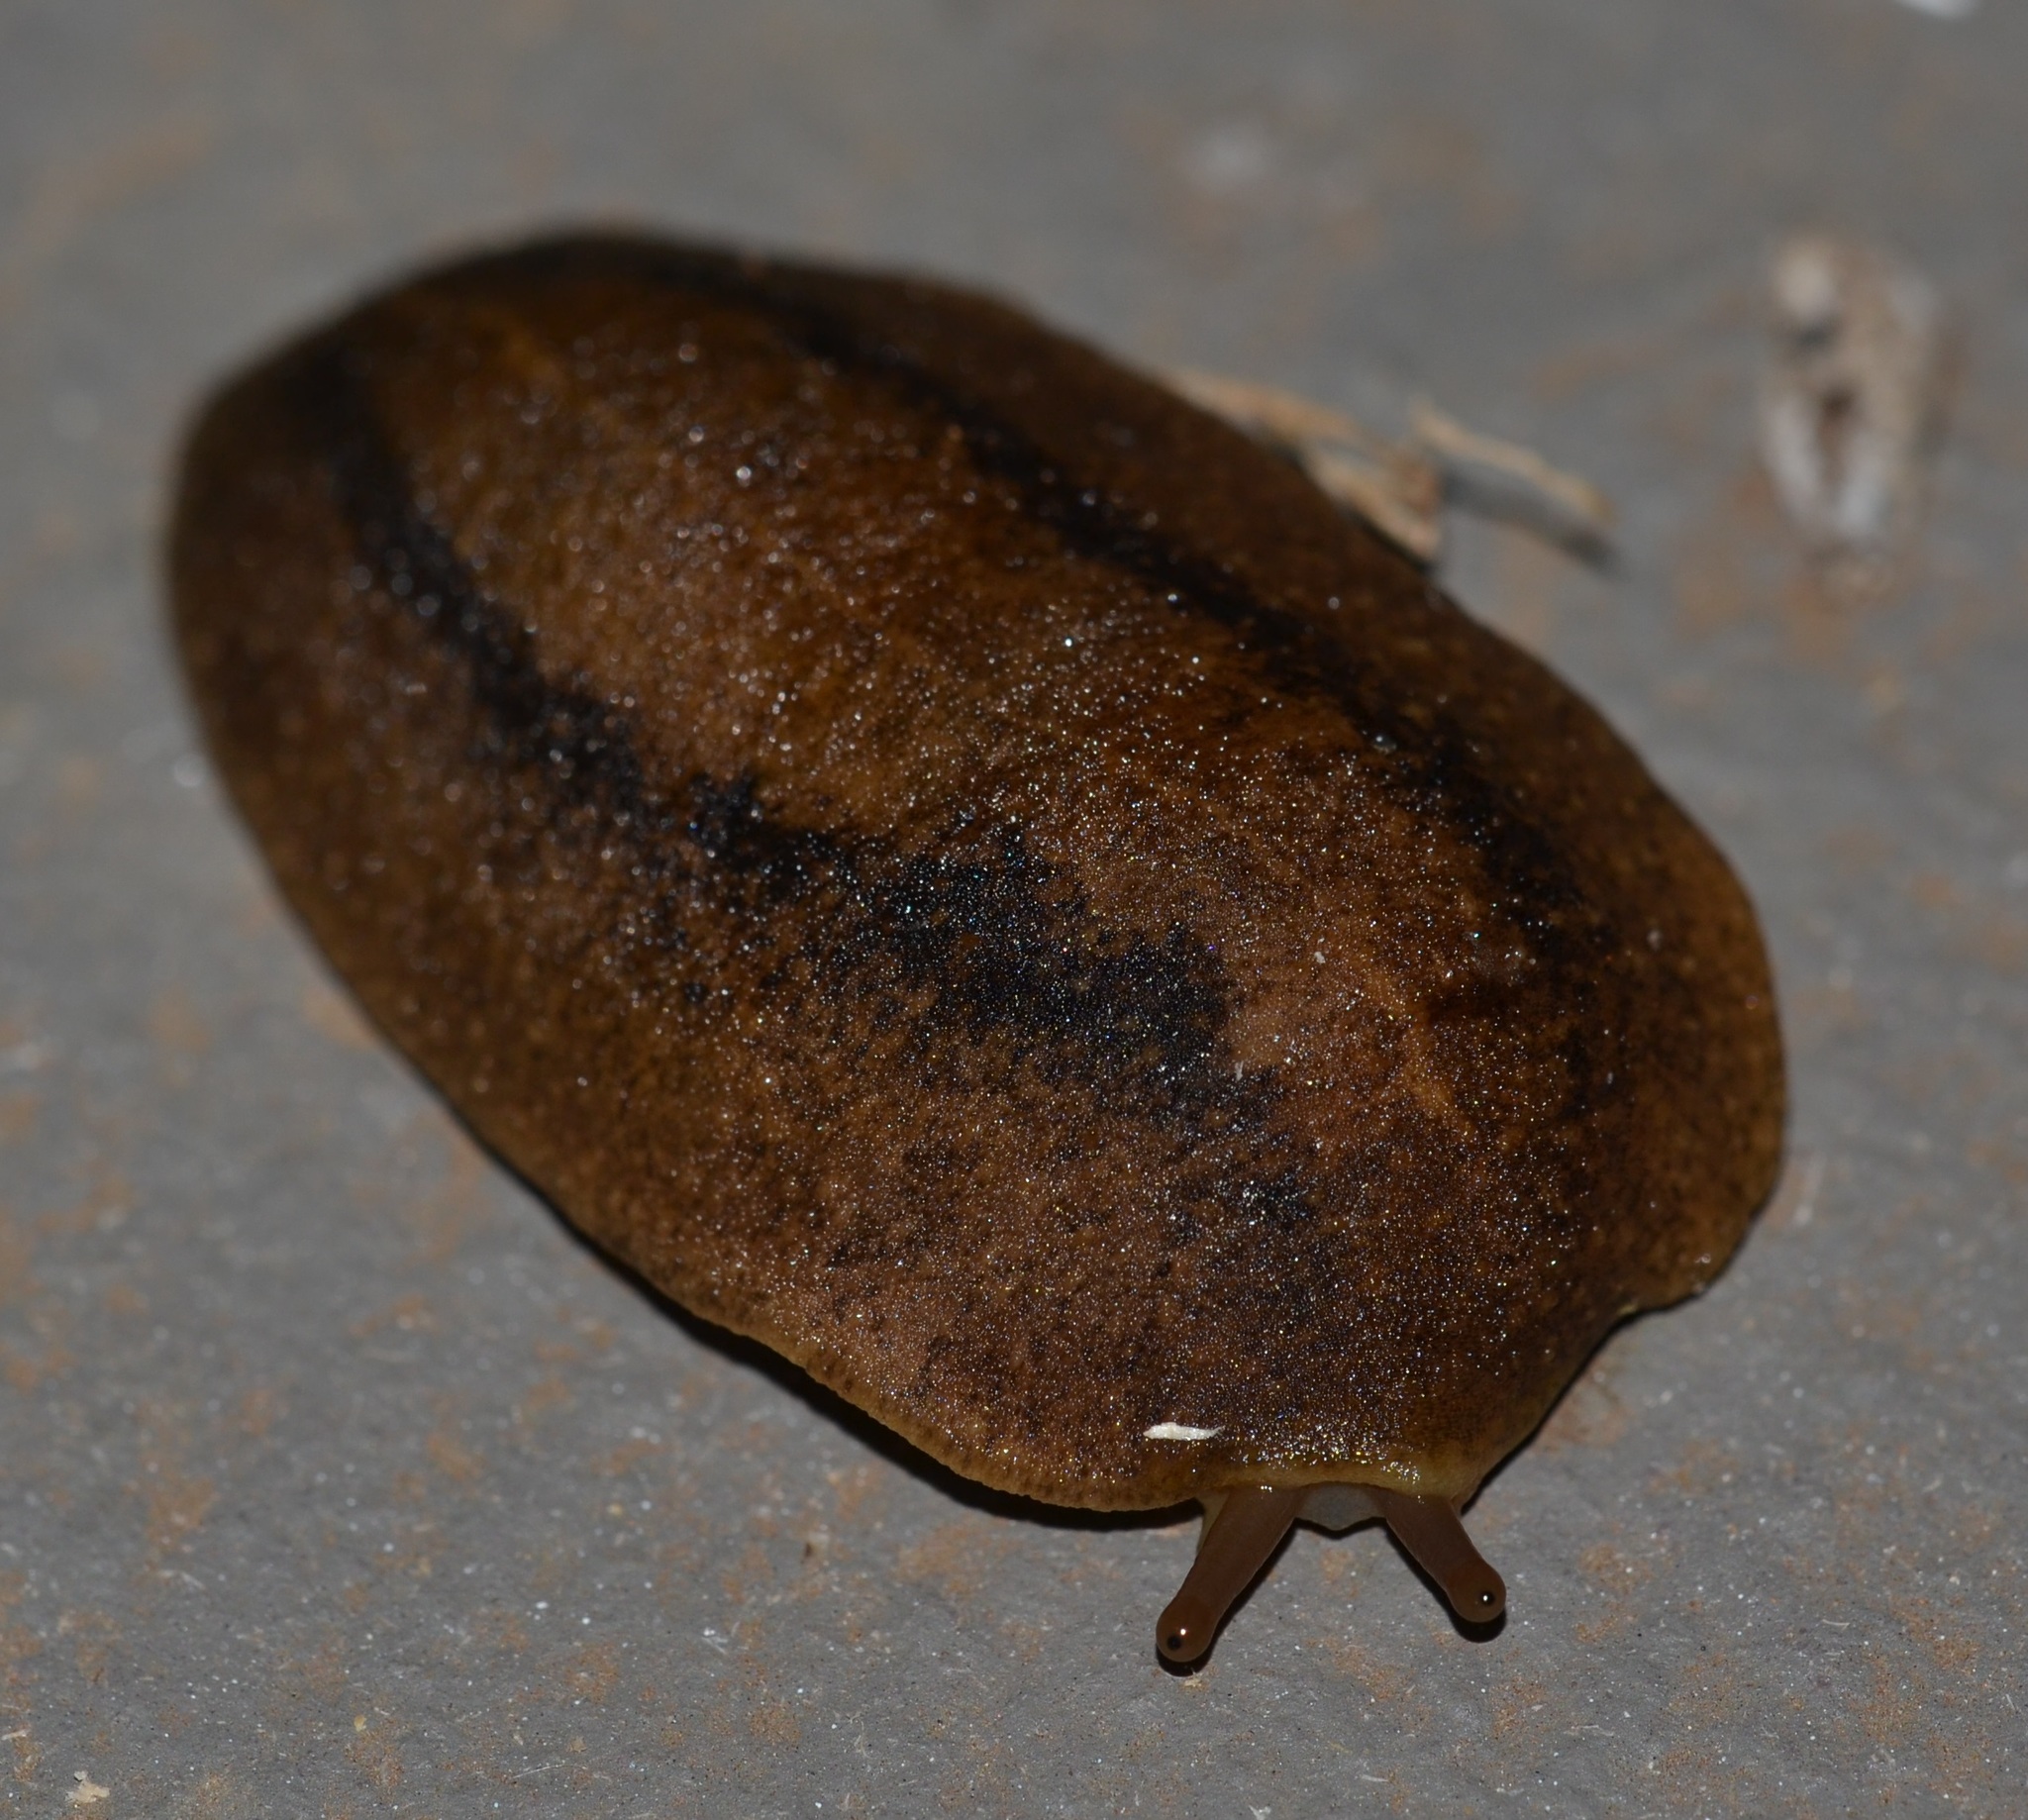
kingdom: Animalia
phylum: Mollusca
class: Gastropoda
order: Systellommatophora
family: Veronicellidae
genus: Veronicella
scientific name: Veronicella cubensis
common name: Two striped slug
